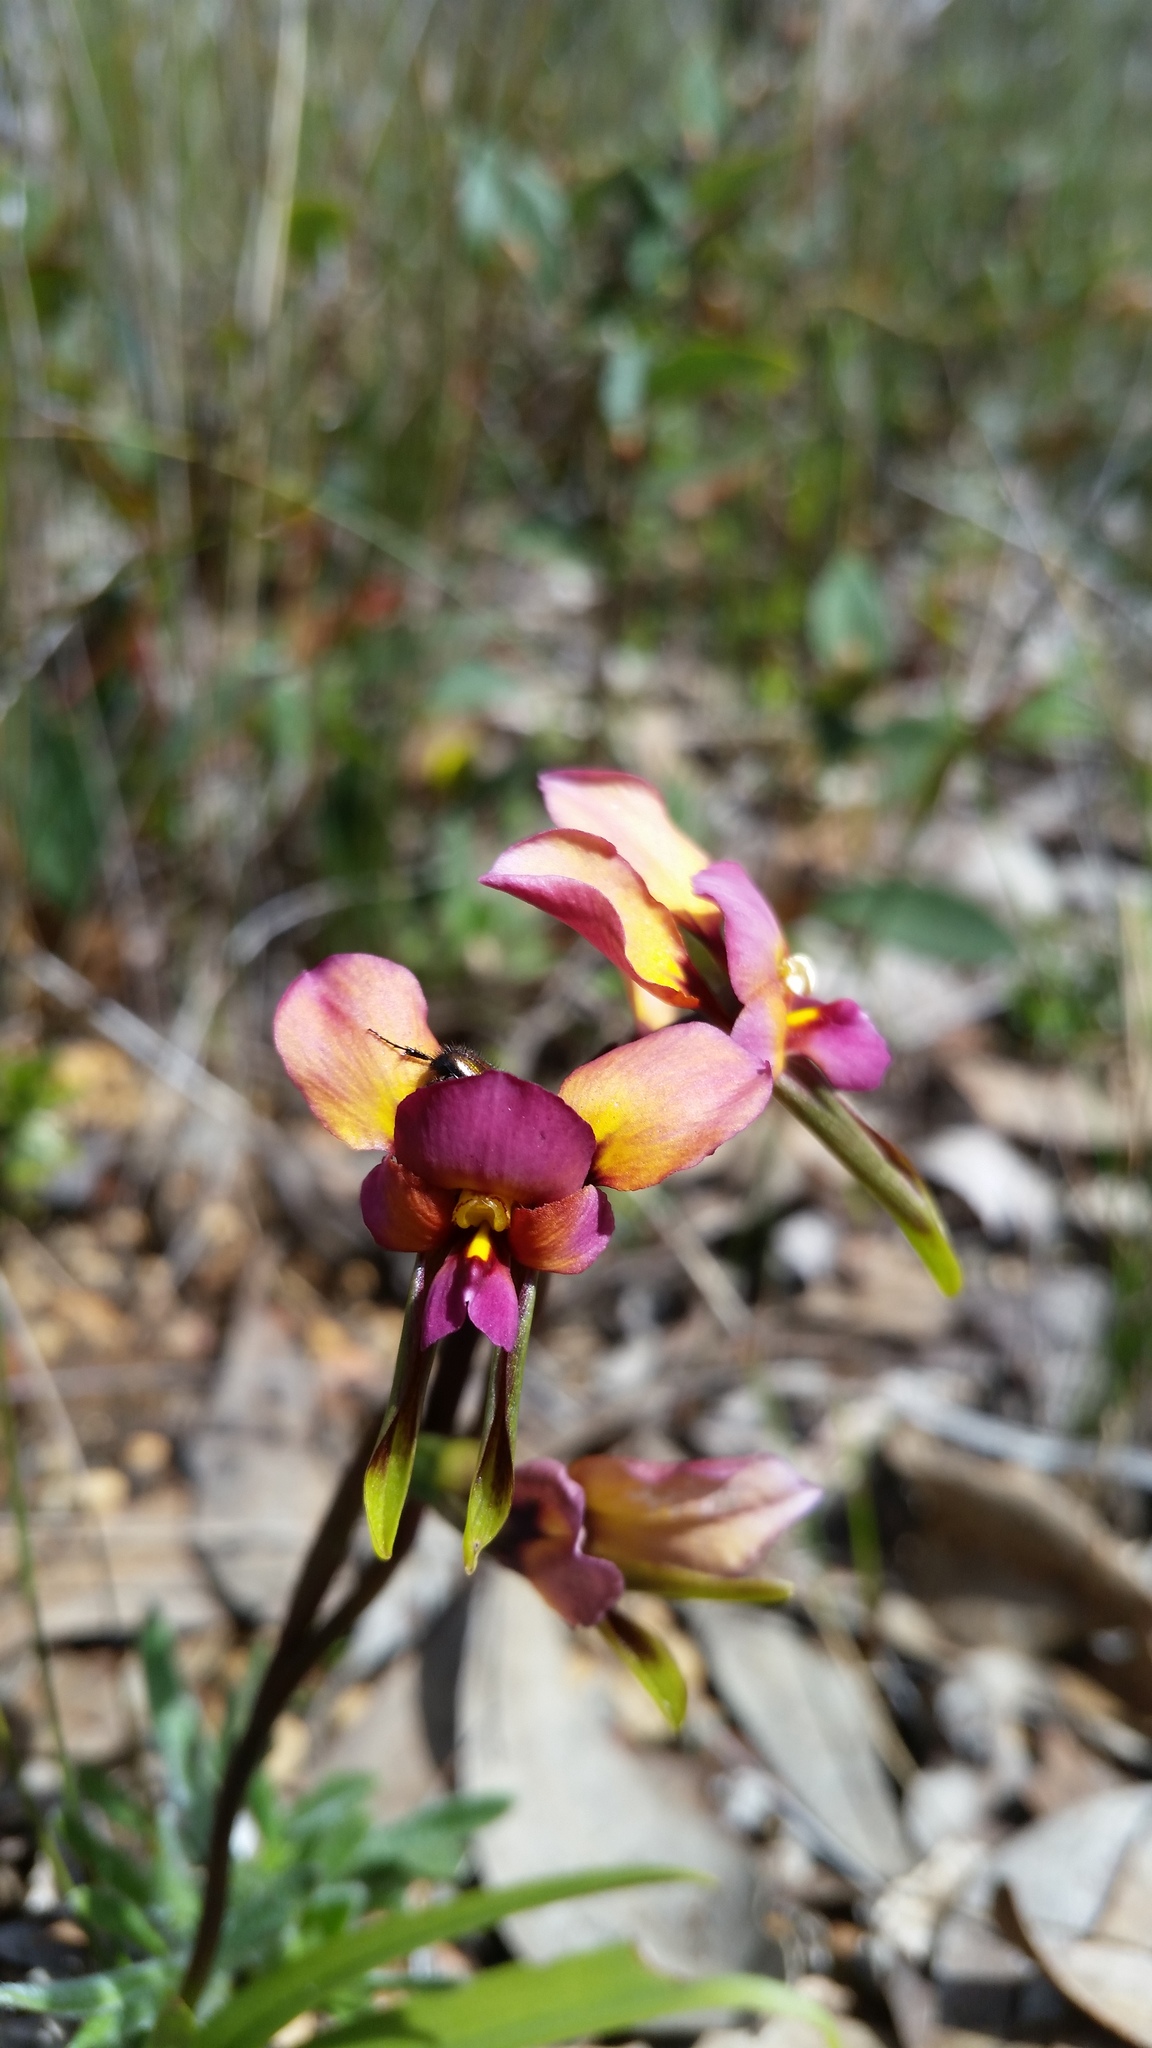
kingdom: Plantae
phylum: Tracheophyta
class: Liliopsida
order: Asparagales
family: Orchidaceae
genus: Diuris
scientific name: Diuris longifolia
